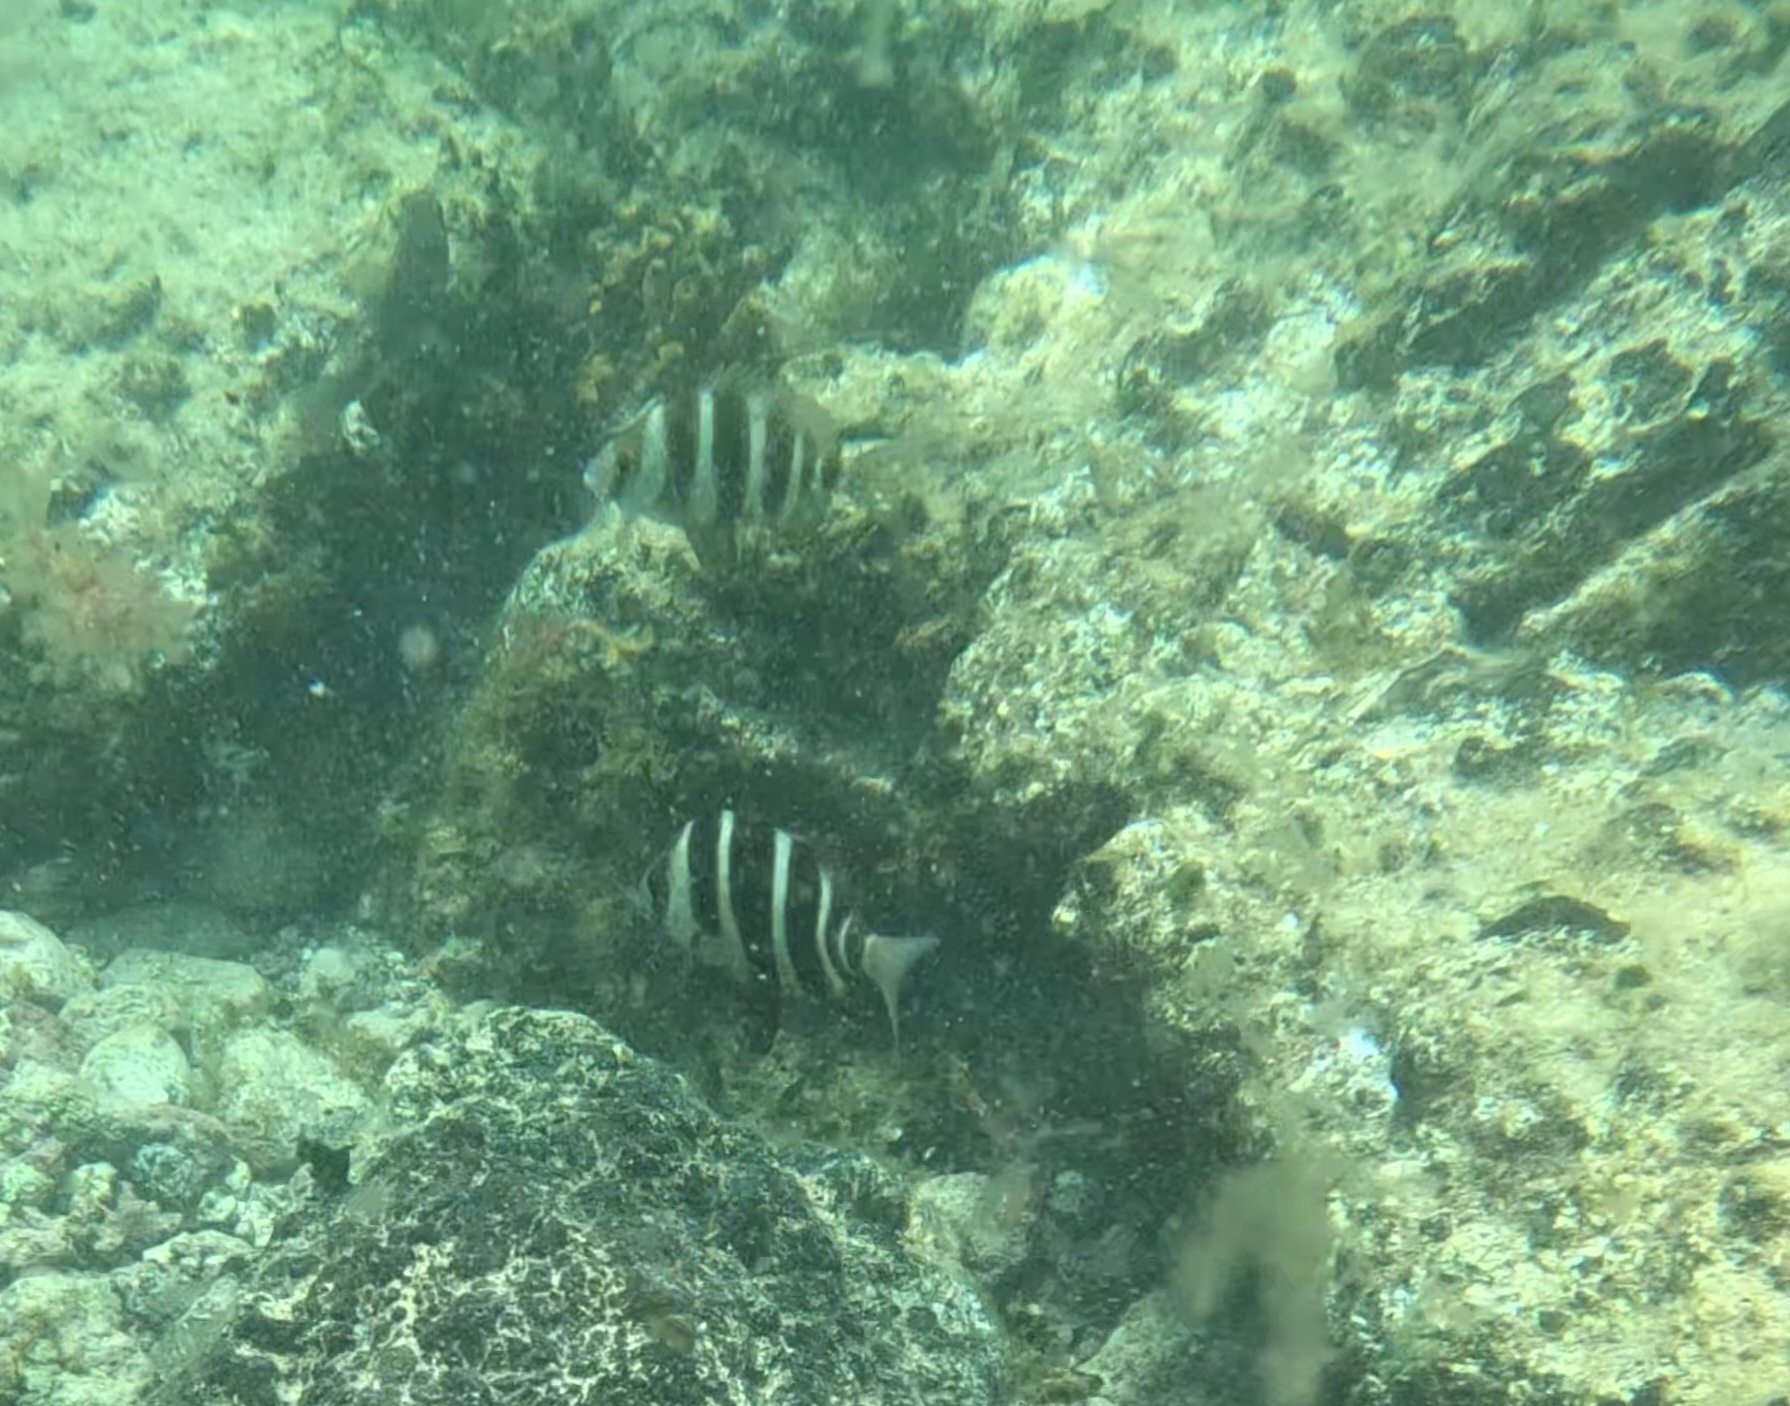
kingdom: Animalia
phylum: Chordata
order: Perciformes
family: Sparidae
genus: Diplodus
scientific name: Diplodus cervinus
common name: Oman porgy
